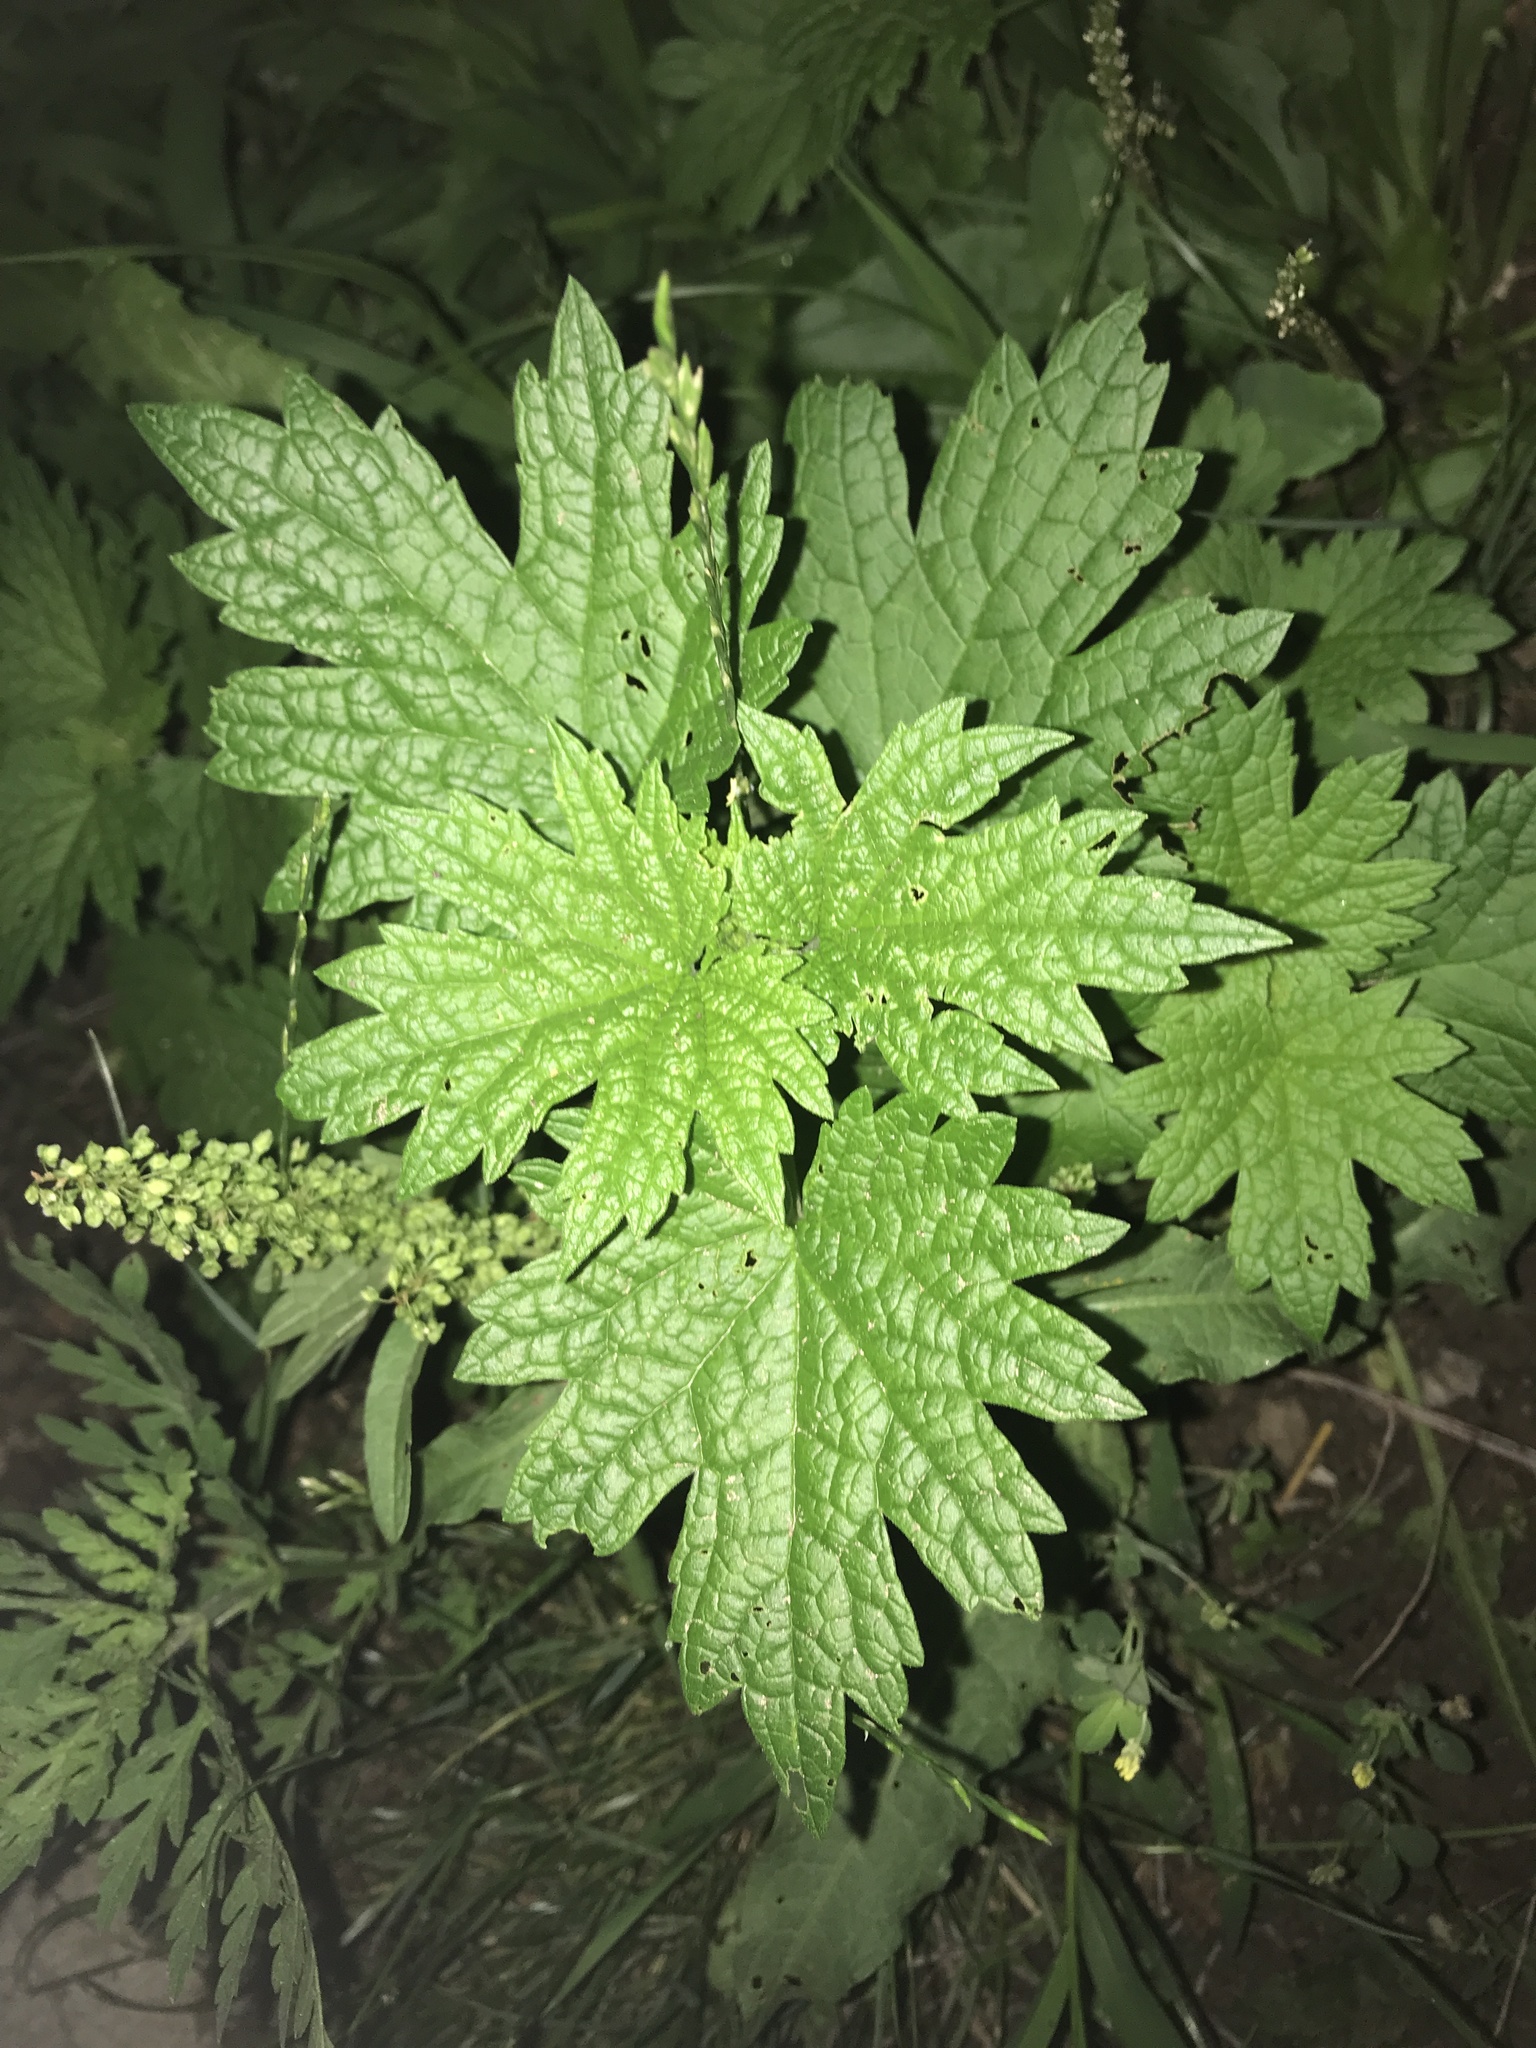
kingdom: Plantae
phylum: Tracheophyta
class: Magnoliopsida
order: Lamiales
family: Lamiaceae
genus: Leonurus
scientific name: Leonurus cardiaca
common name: Motherwort
